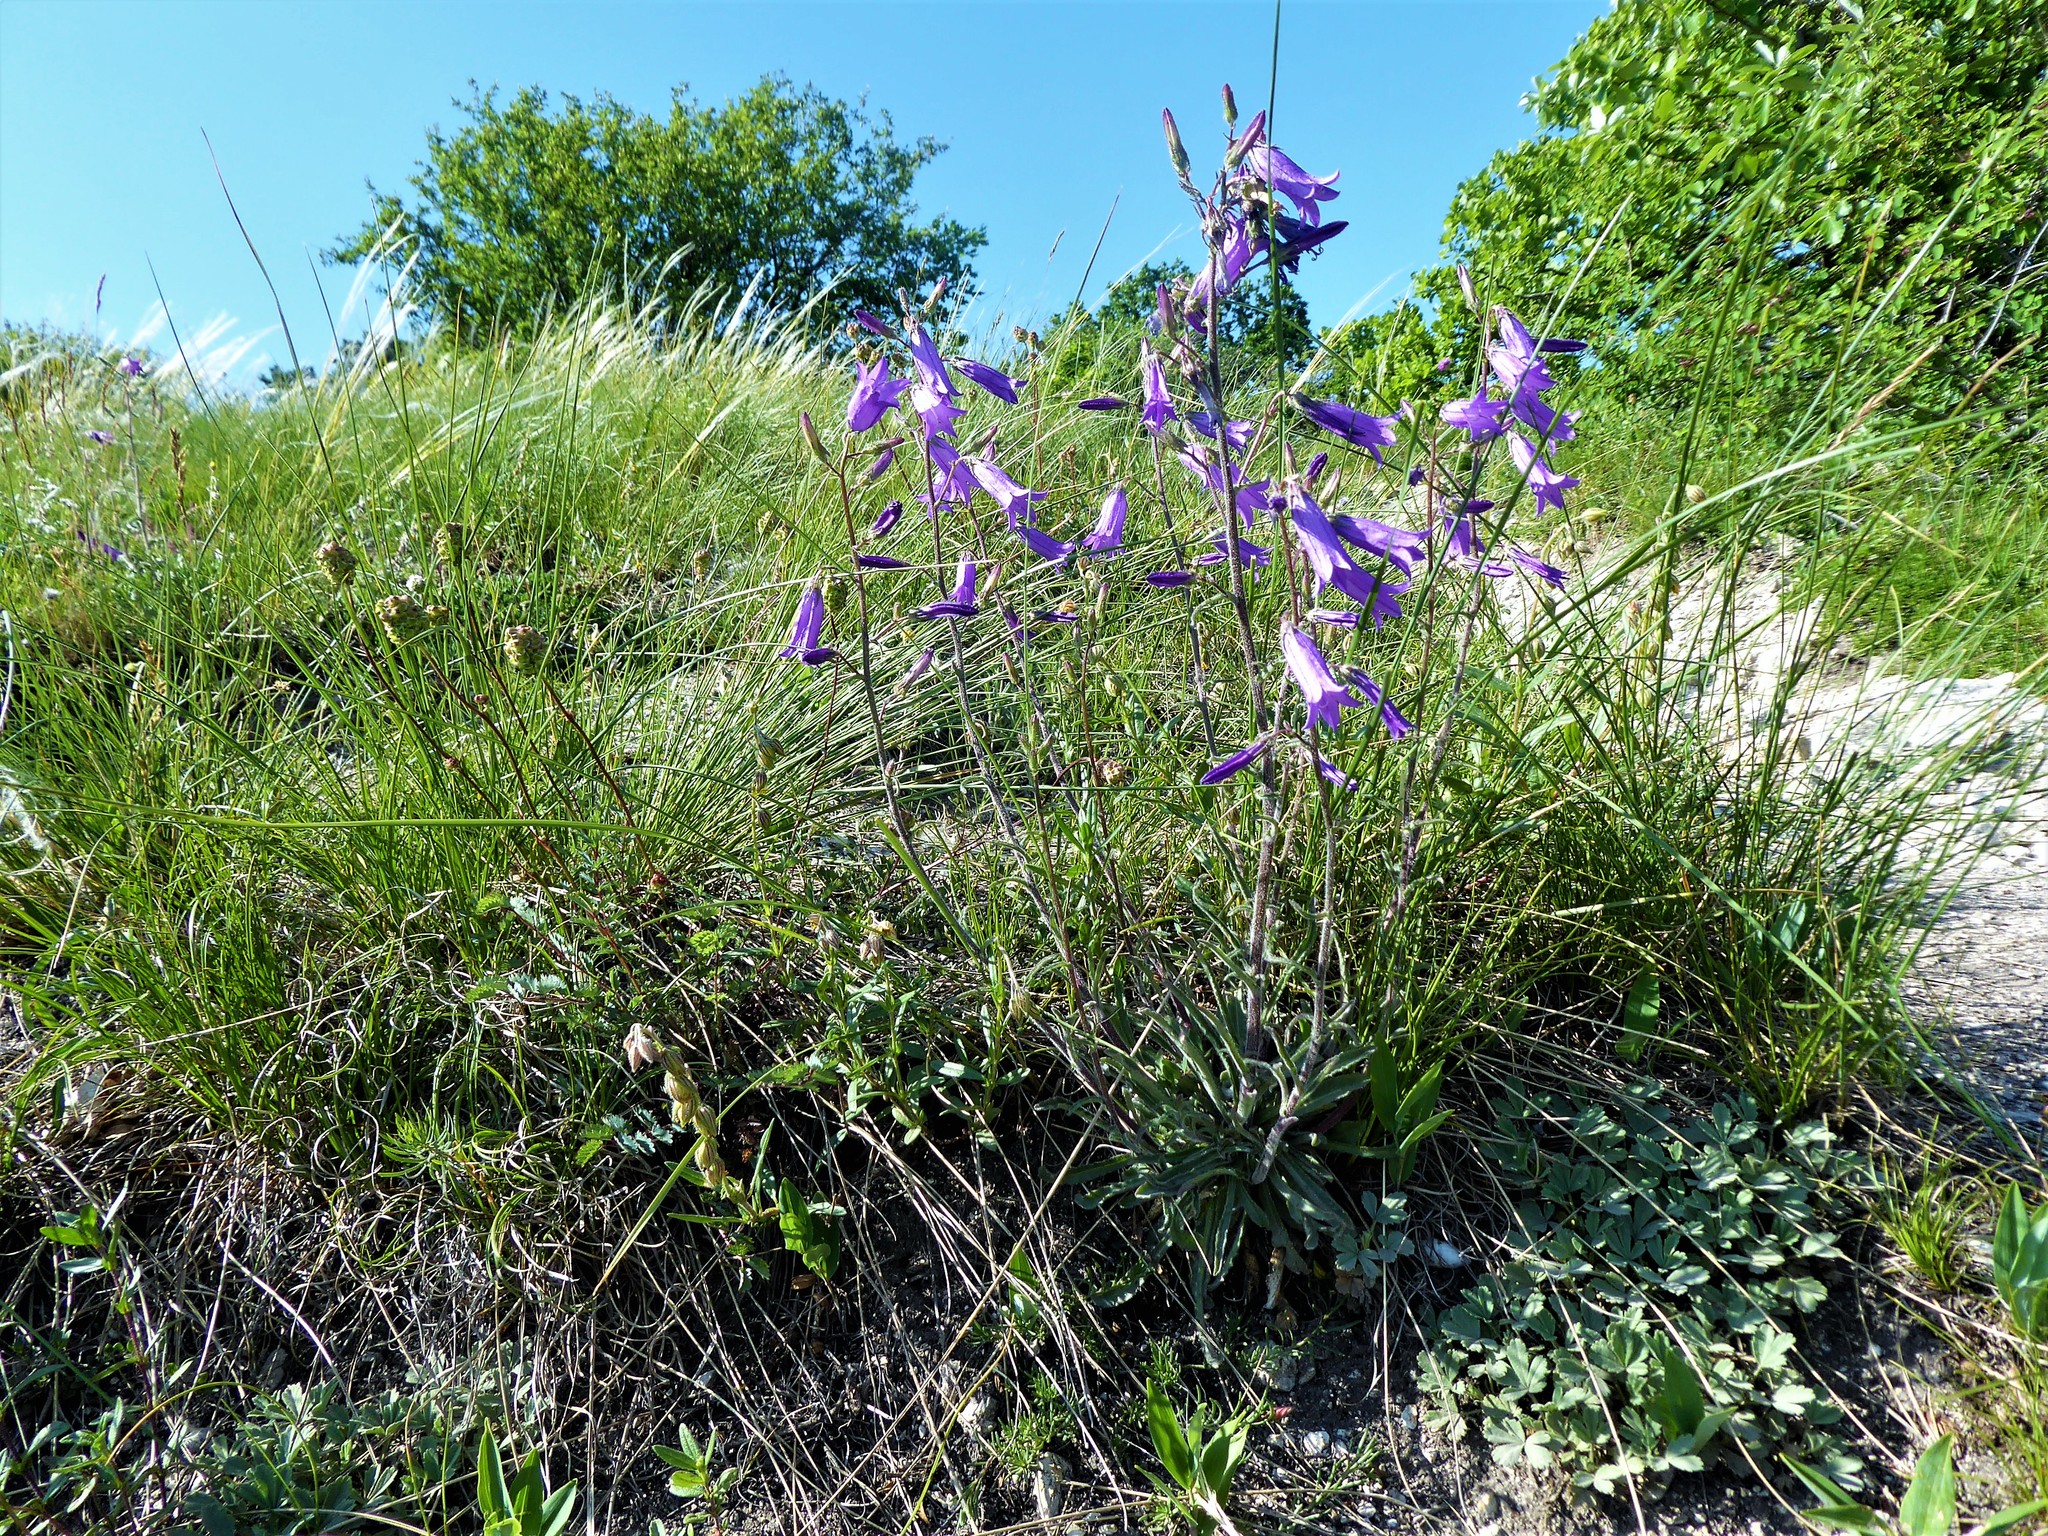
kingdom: Plantae
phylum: Tracheophyta
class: Magnoliopsida
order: Asterales
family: Campanulaceae
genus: Campanula
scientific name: Campanula sibirica
